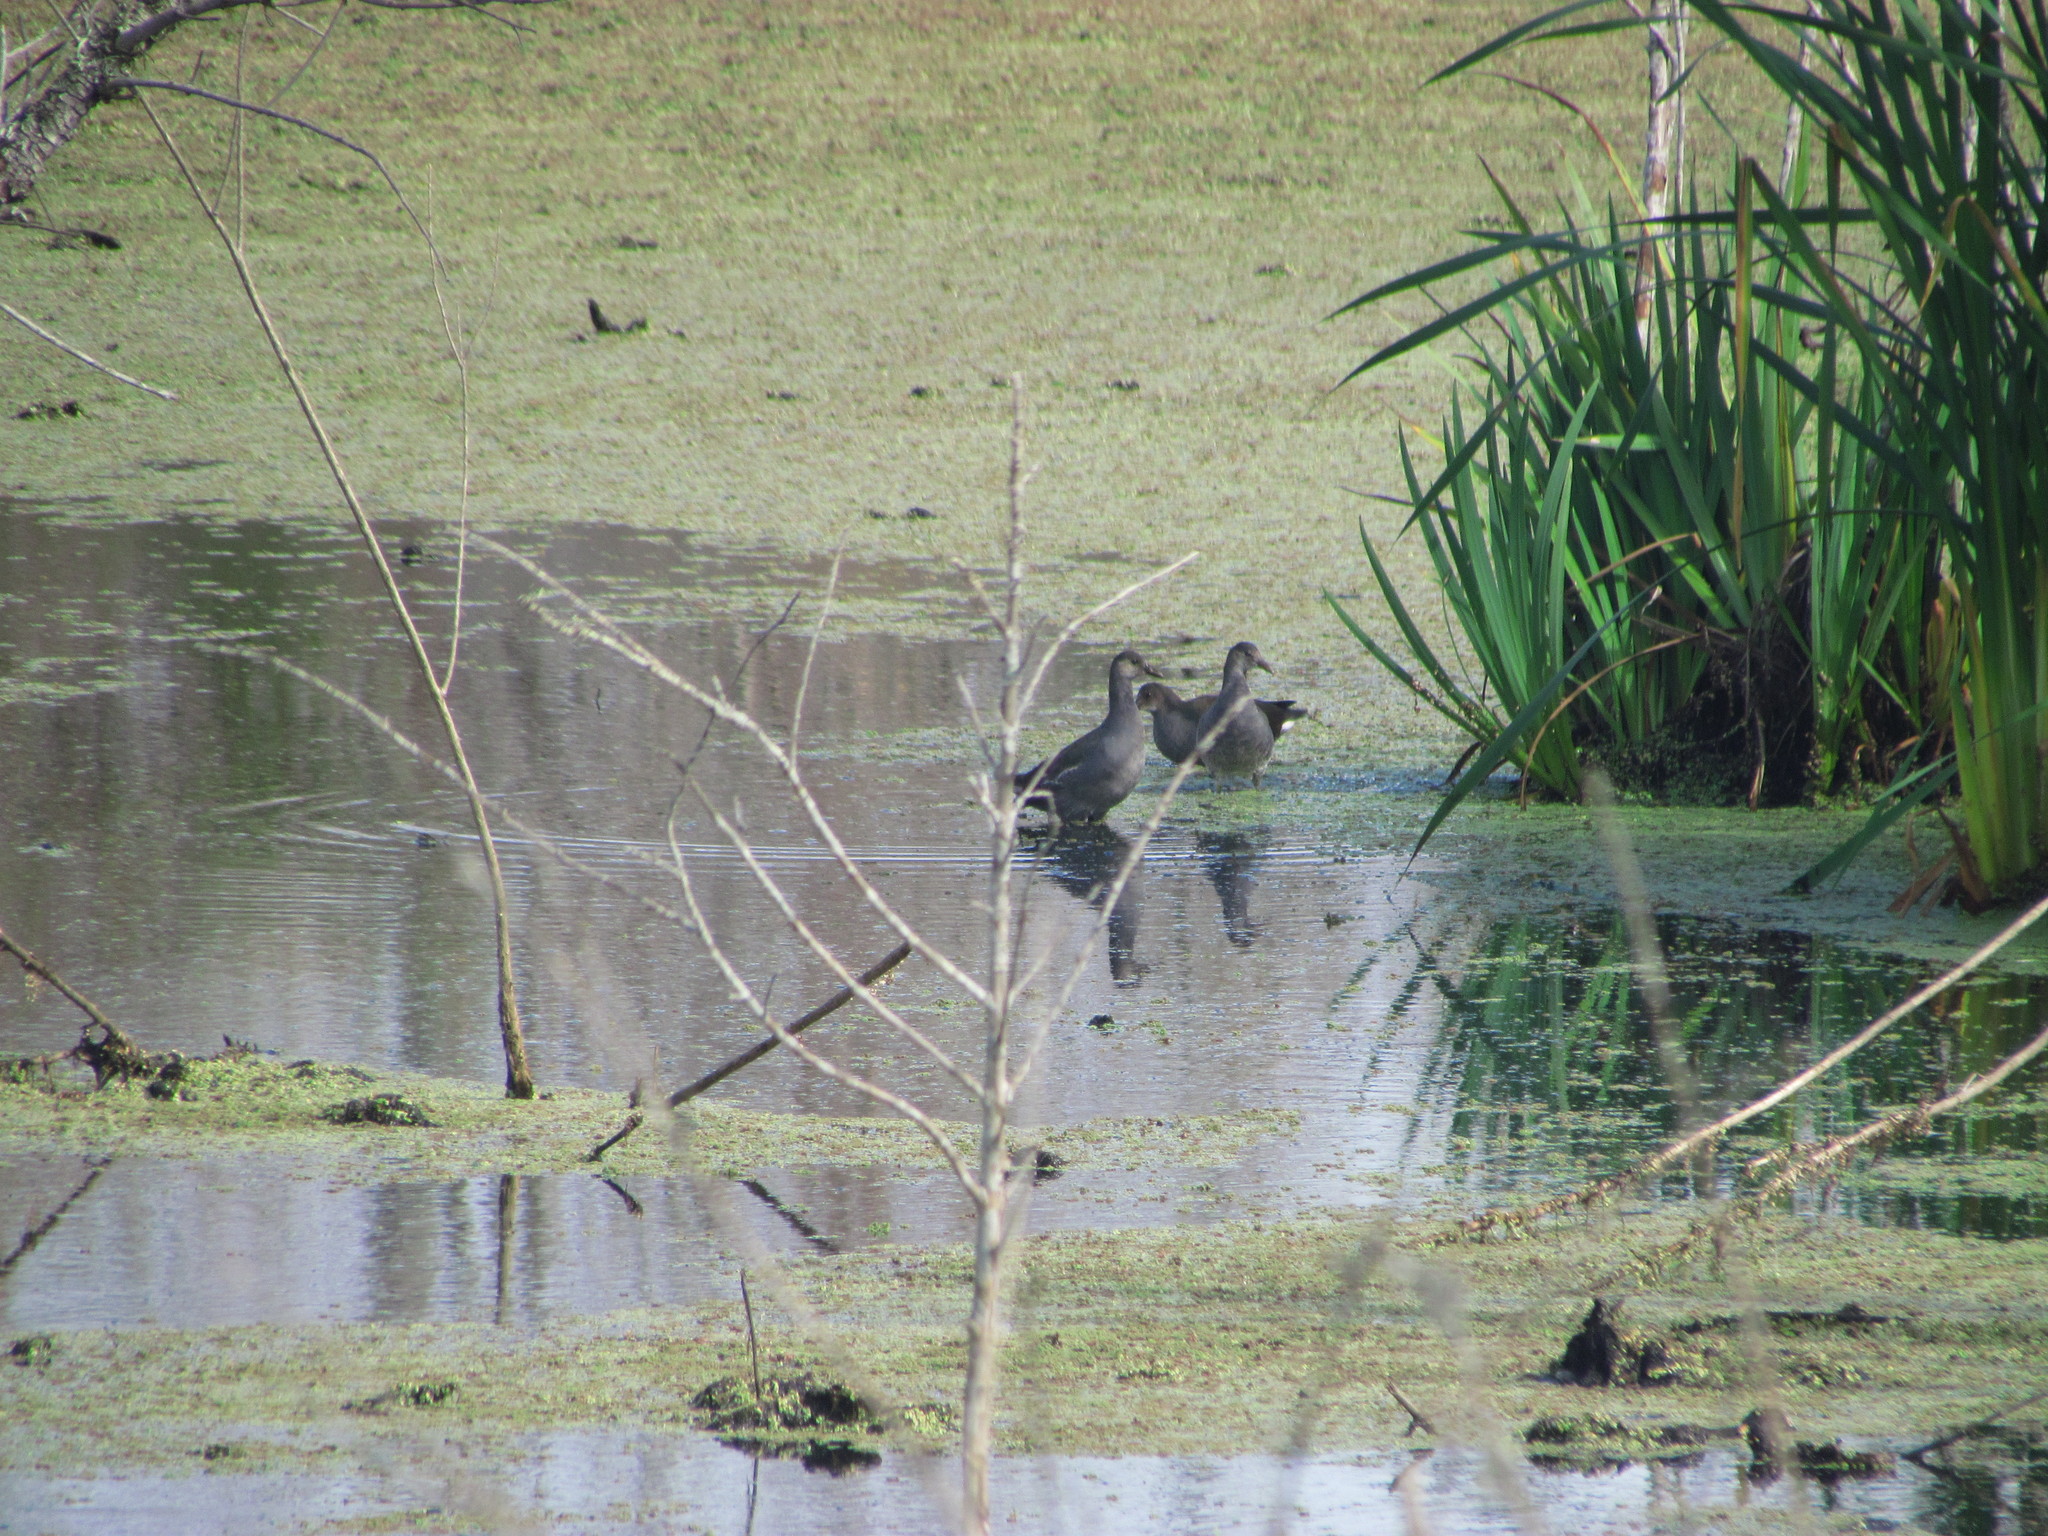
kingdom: Animalia
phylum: Chordata
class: Aves
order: Gruiformes
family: Rallidae
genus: Gallinula
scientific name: Gallinula chloropus
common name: Common moorhen
